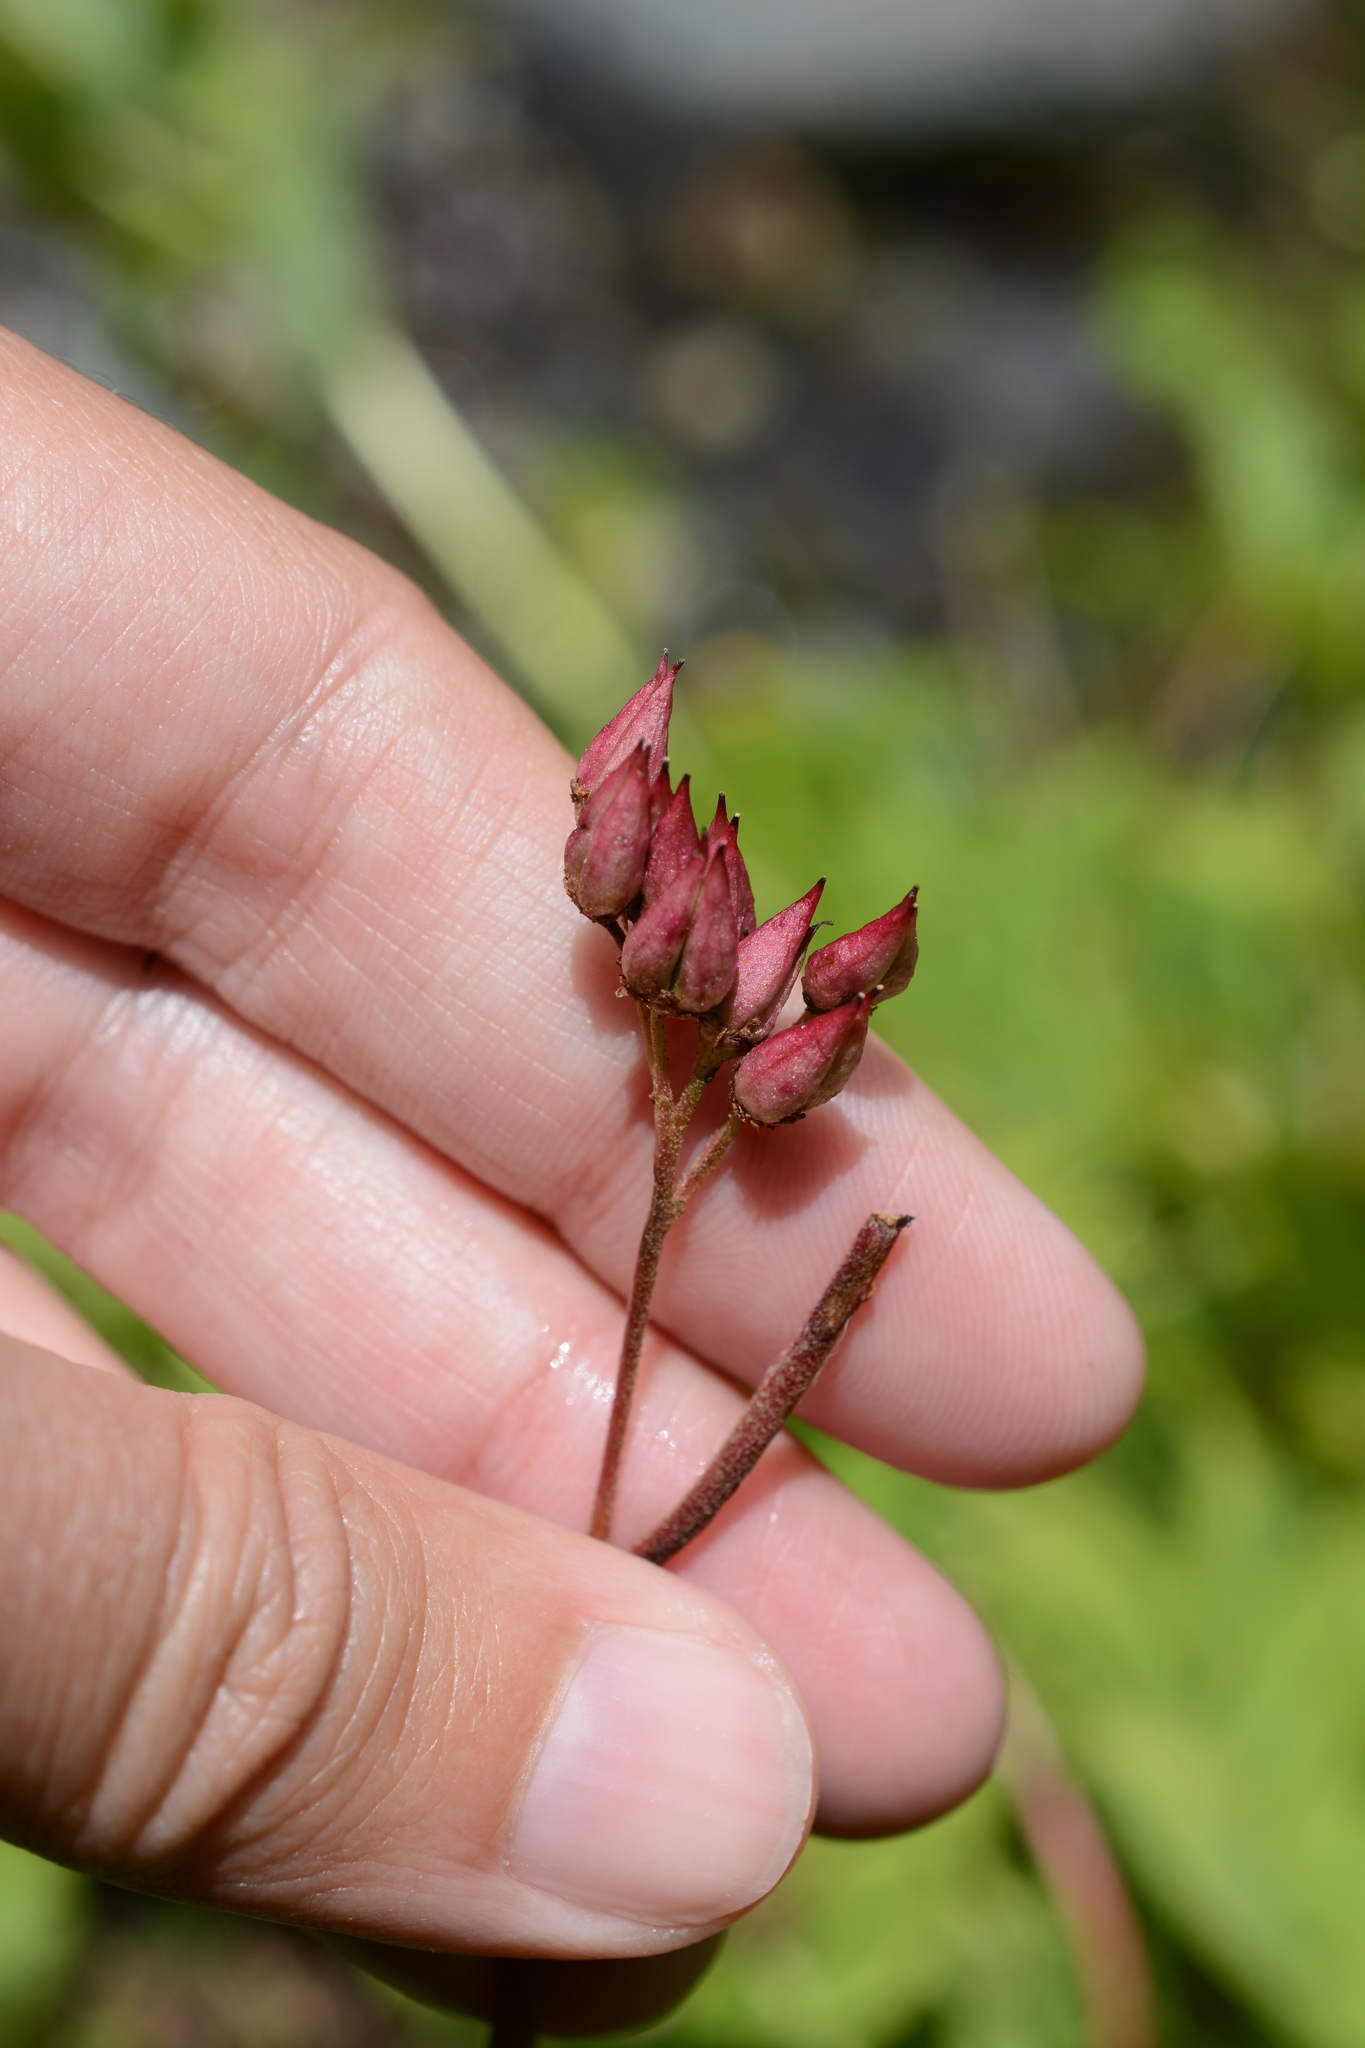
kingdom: Plantae
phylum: Tracheophyta
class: Magnoliopsida
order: Saxifragales
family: Saxifragaceae
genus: Leptarrhena
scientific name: Leptarrhena pyrolifolia
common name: Leatherleaf-saxifrage
